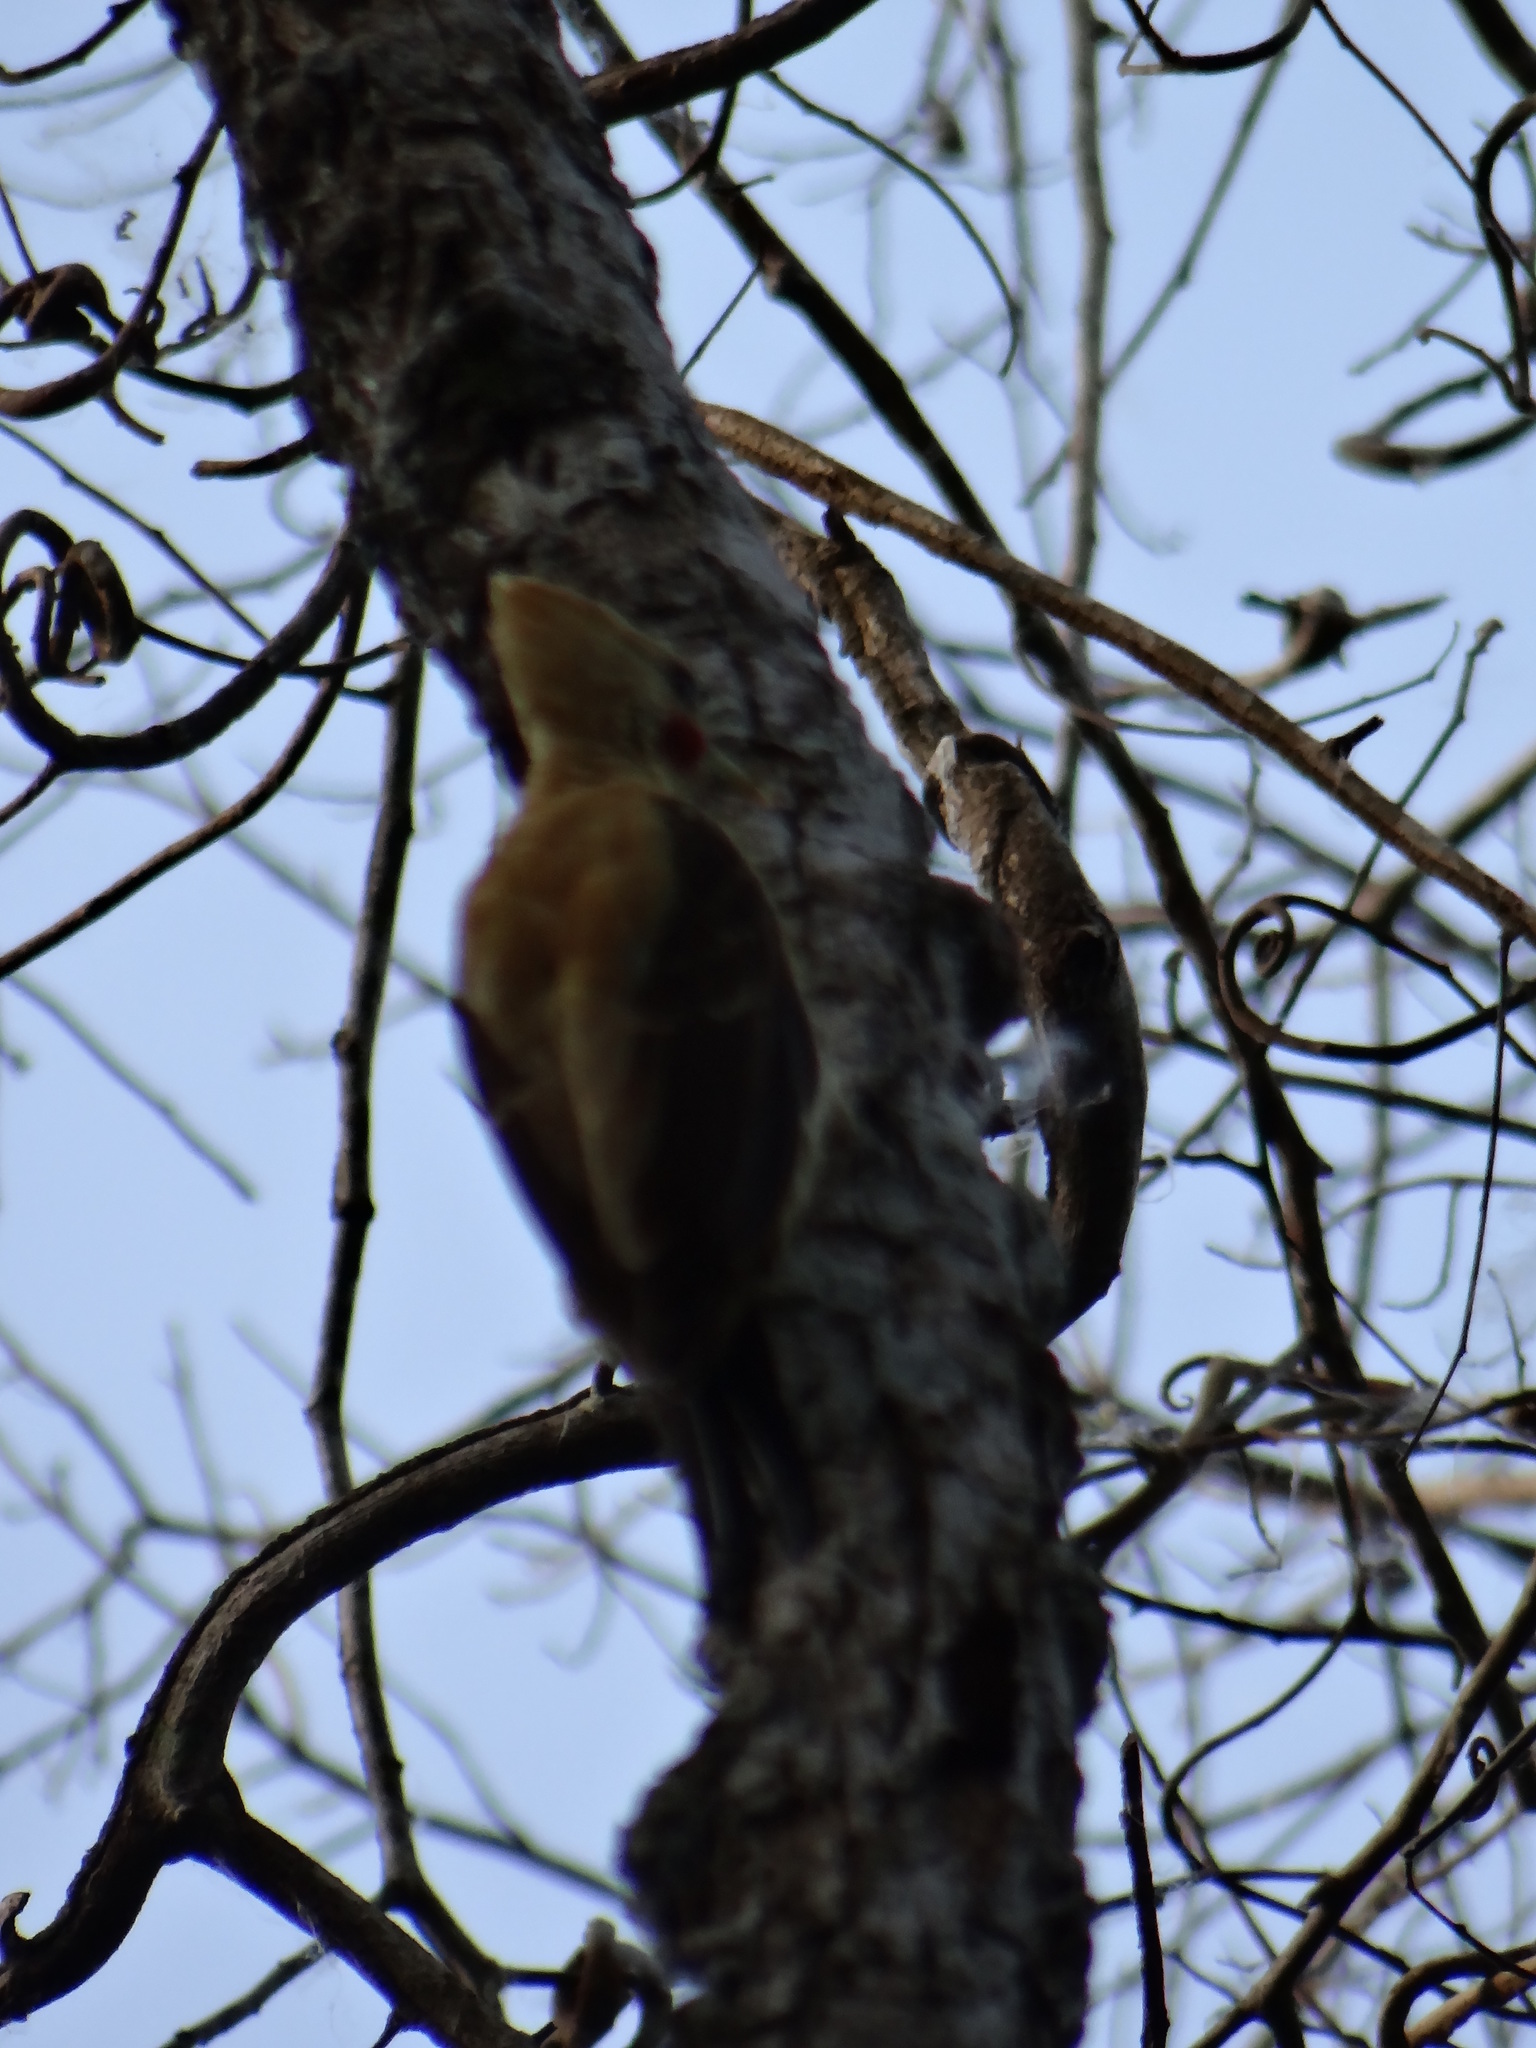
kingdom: Animalia
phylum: Chordata
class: Aves
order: Piciformes
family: Picidae
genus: Celeus
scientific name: Celeus flavus
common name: Cream-colored woodpecker
